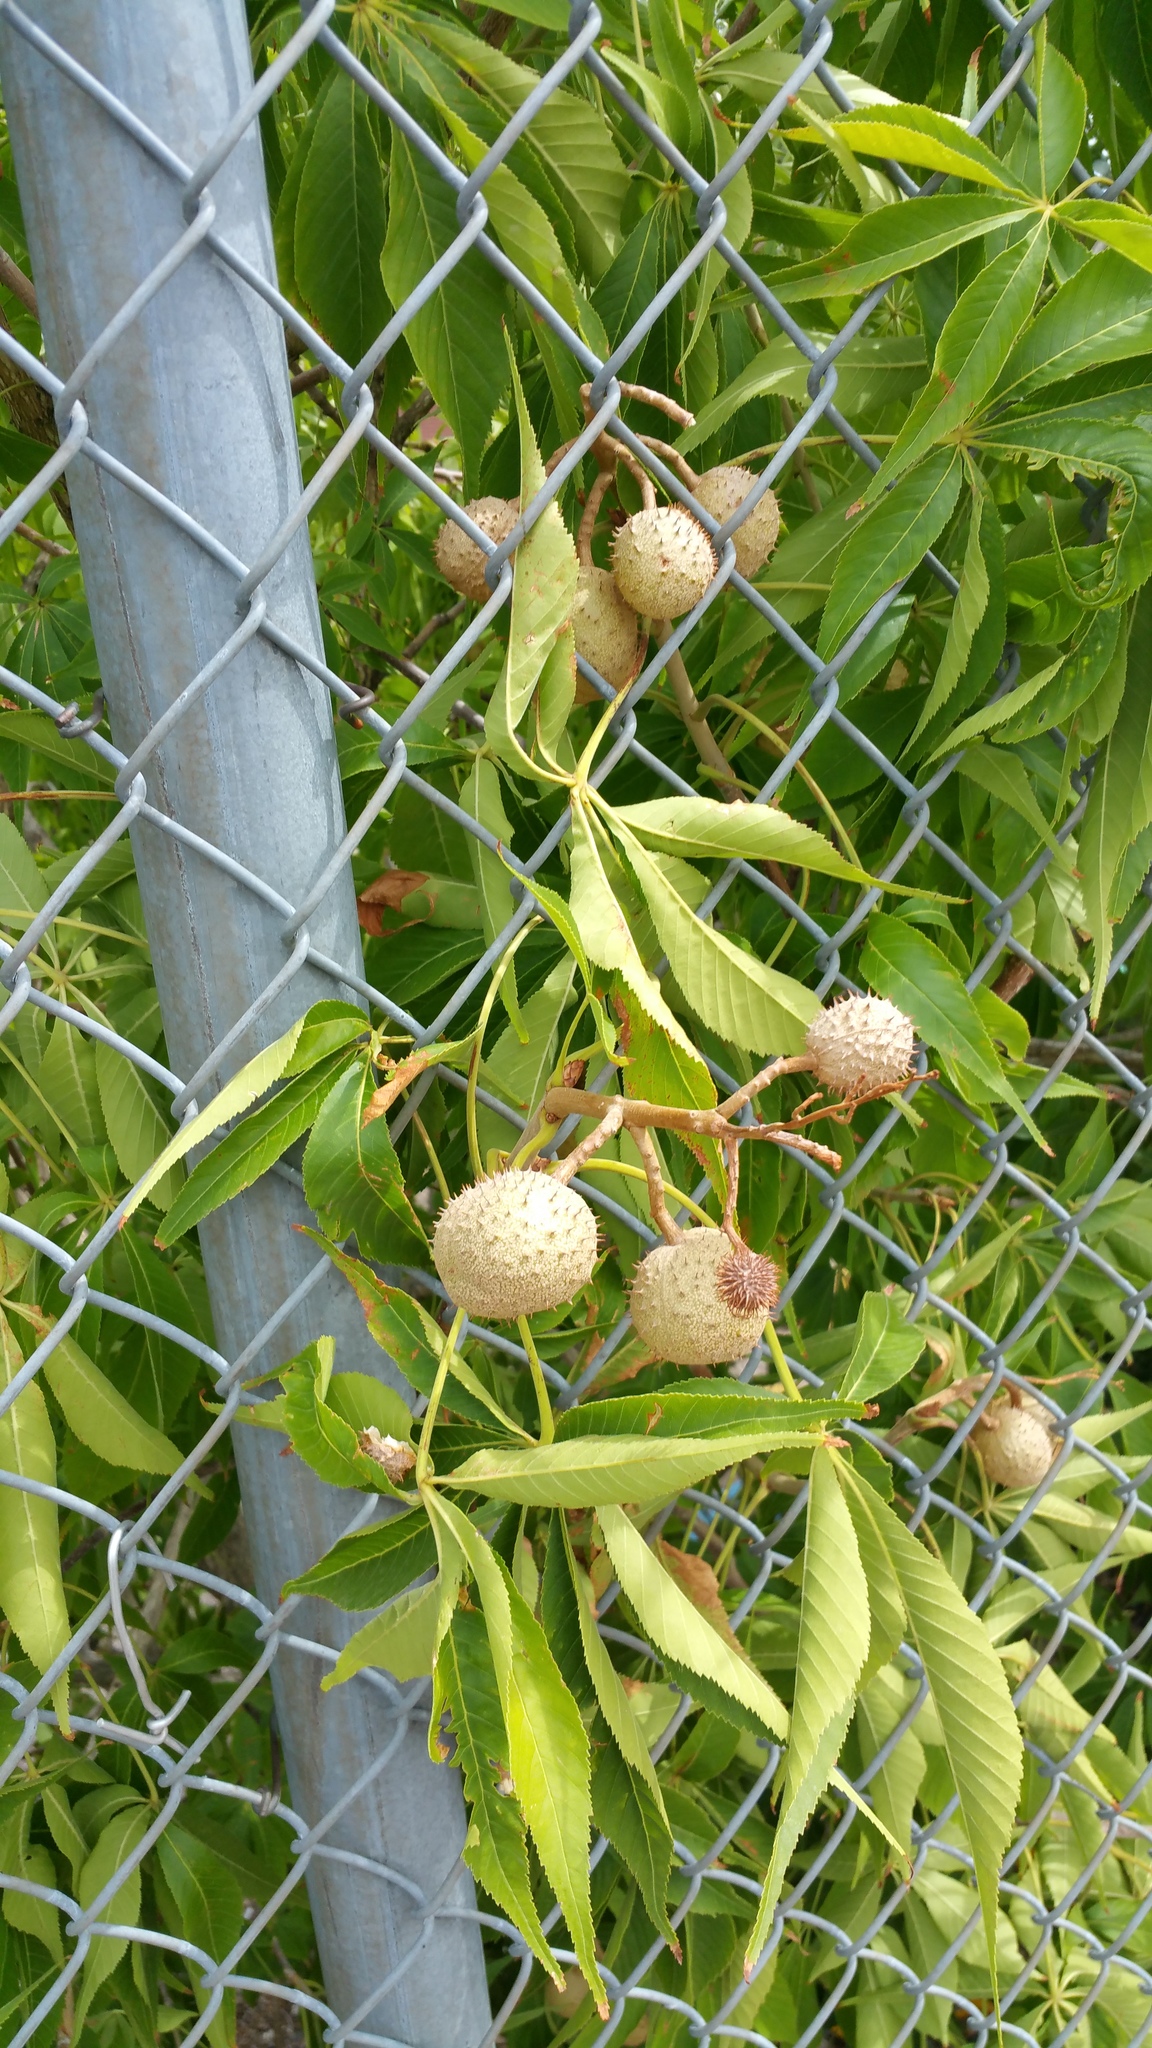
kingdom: Plantae
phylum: Tracheophyta
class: Magnoliopsida
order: Sapindales
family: Sapindaceae
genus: Aesculus
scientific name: Aesculus glabra
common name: Ohio buckeye
